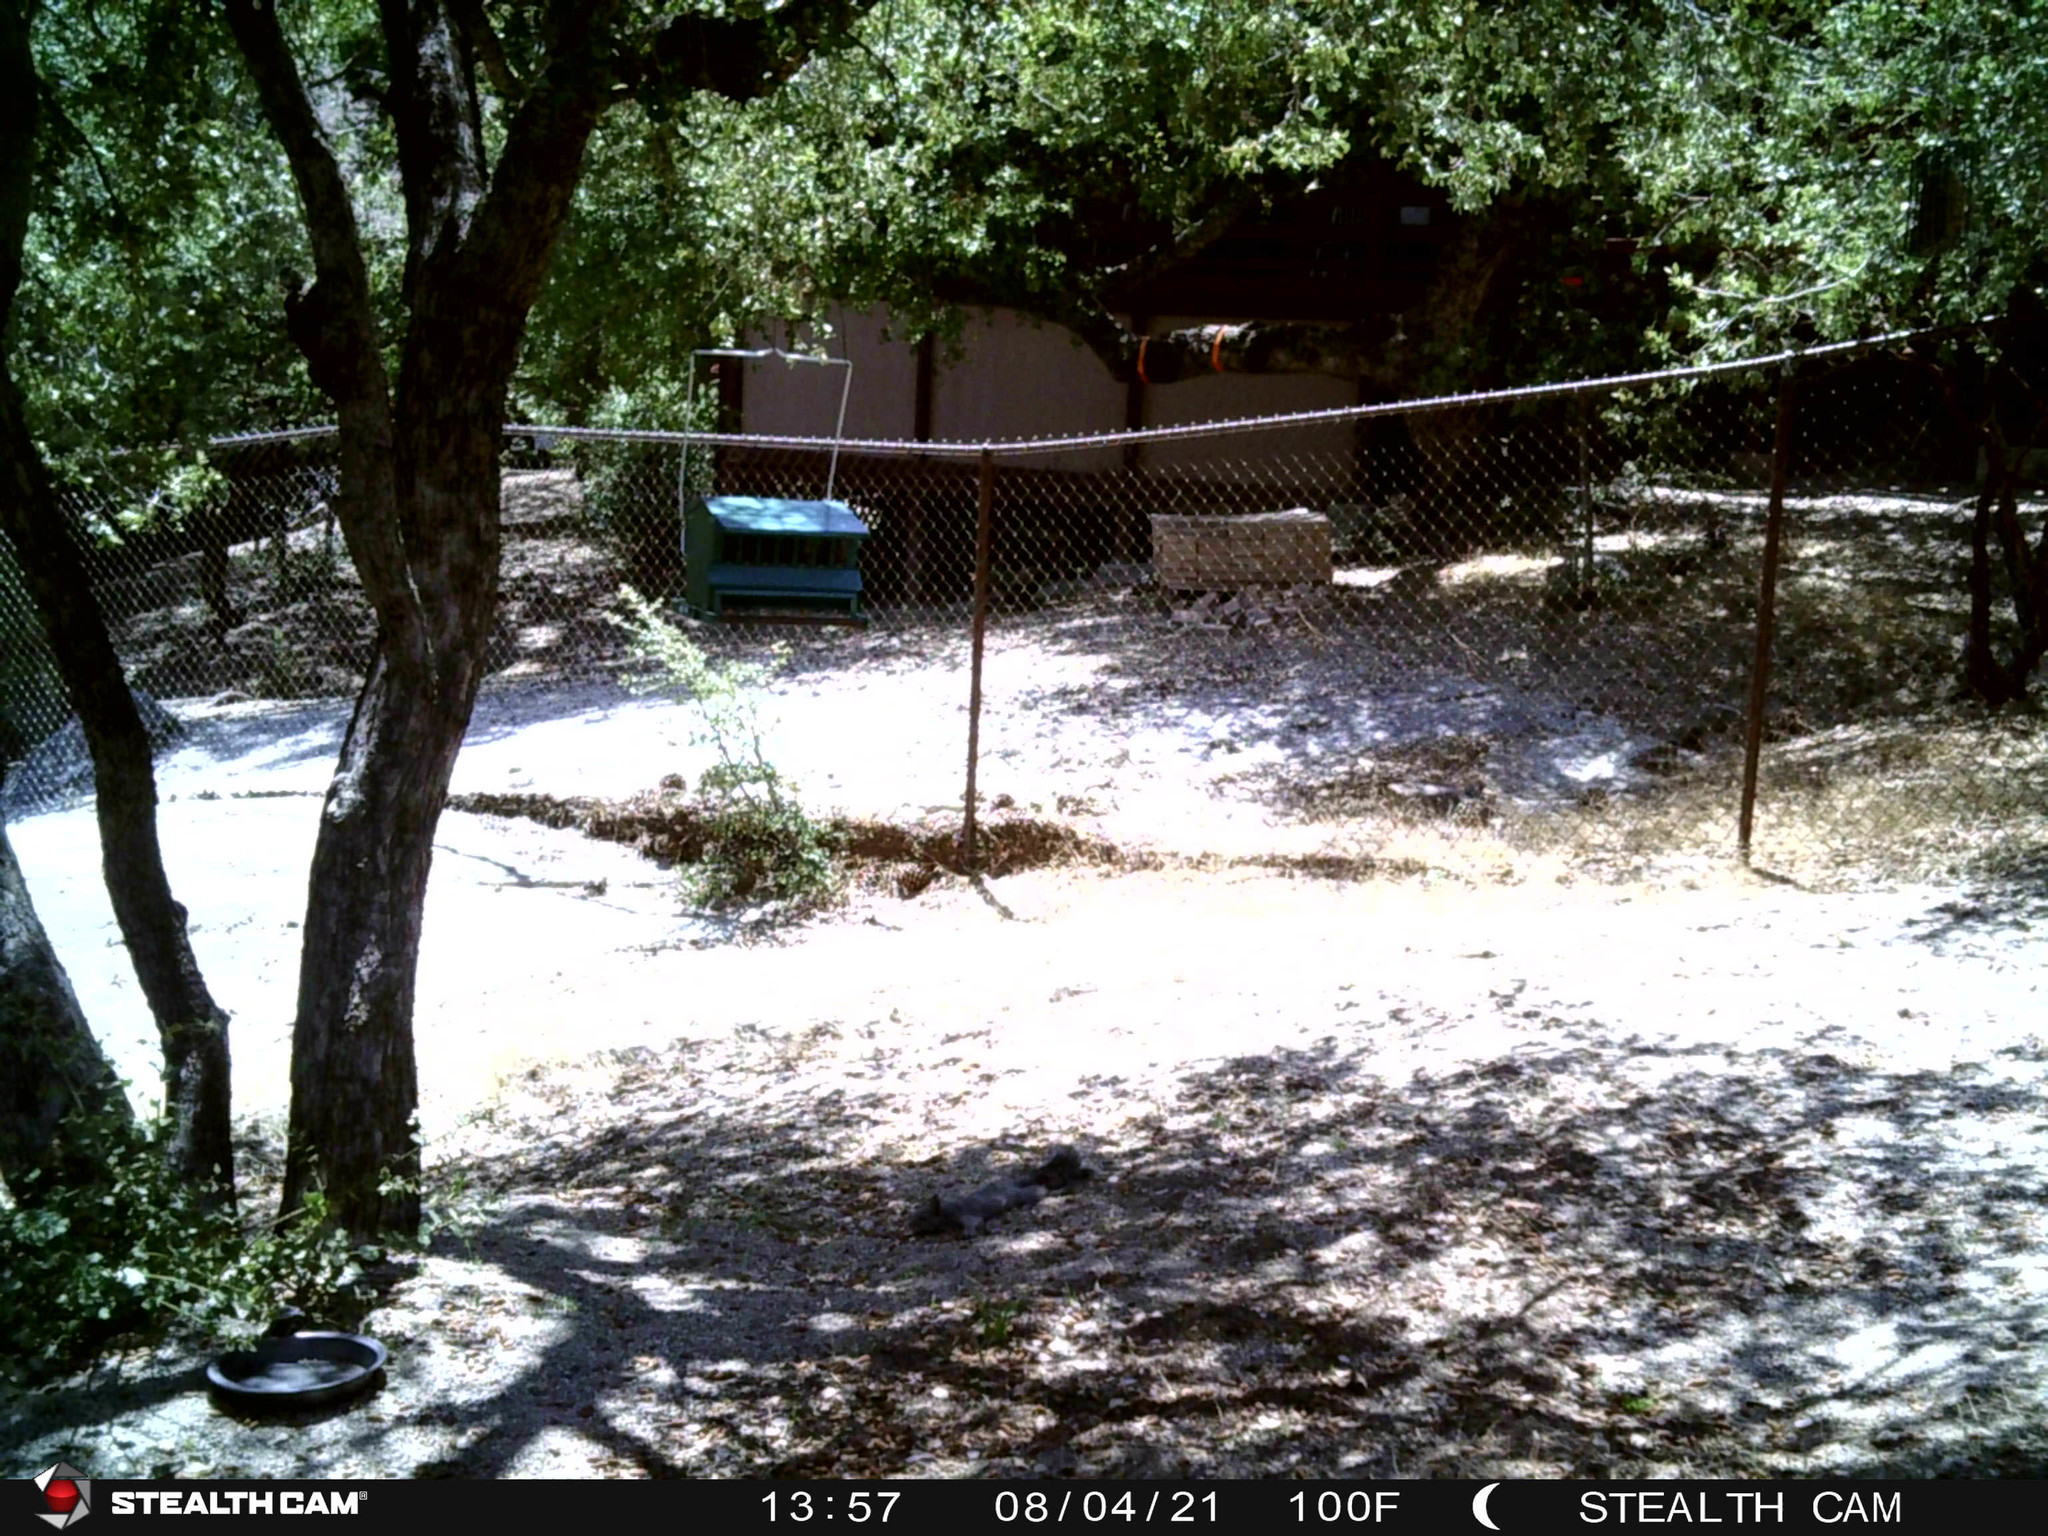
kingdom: Animalia
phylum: Chordata
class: Mammalia
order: Rodentia
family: Sciuridae
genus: Sciurus
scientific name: Sciurus griseus
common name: Western gray squirrel
